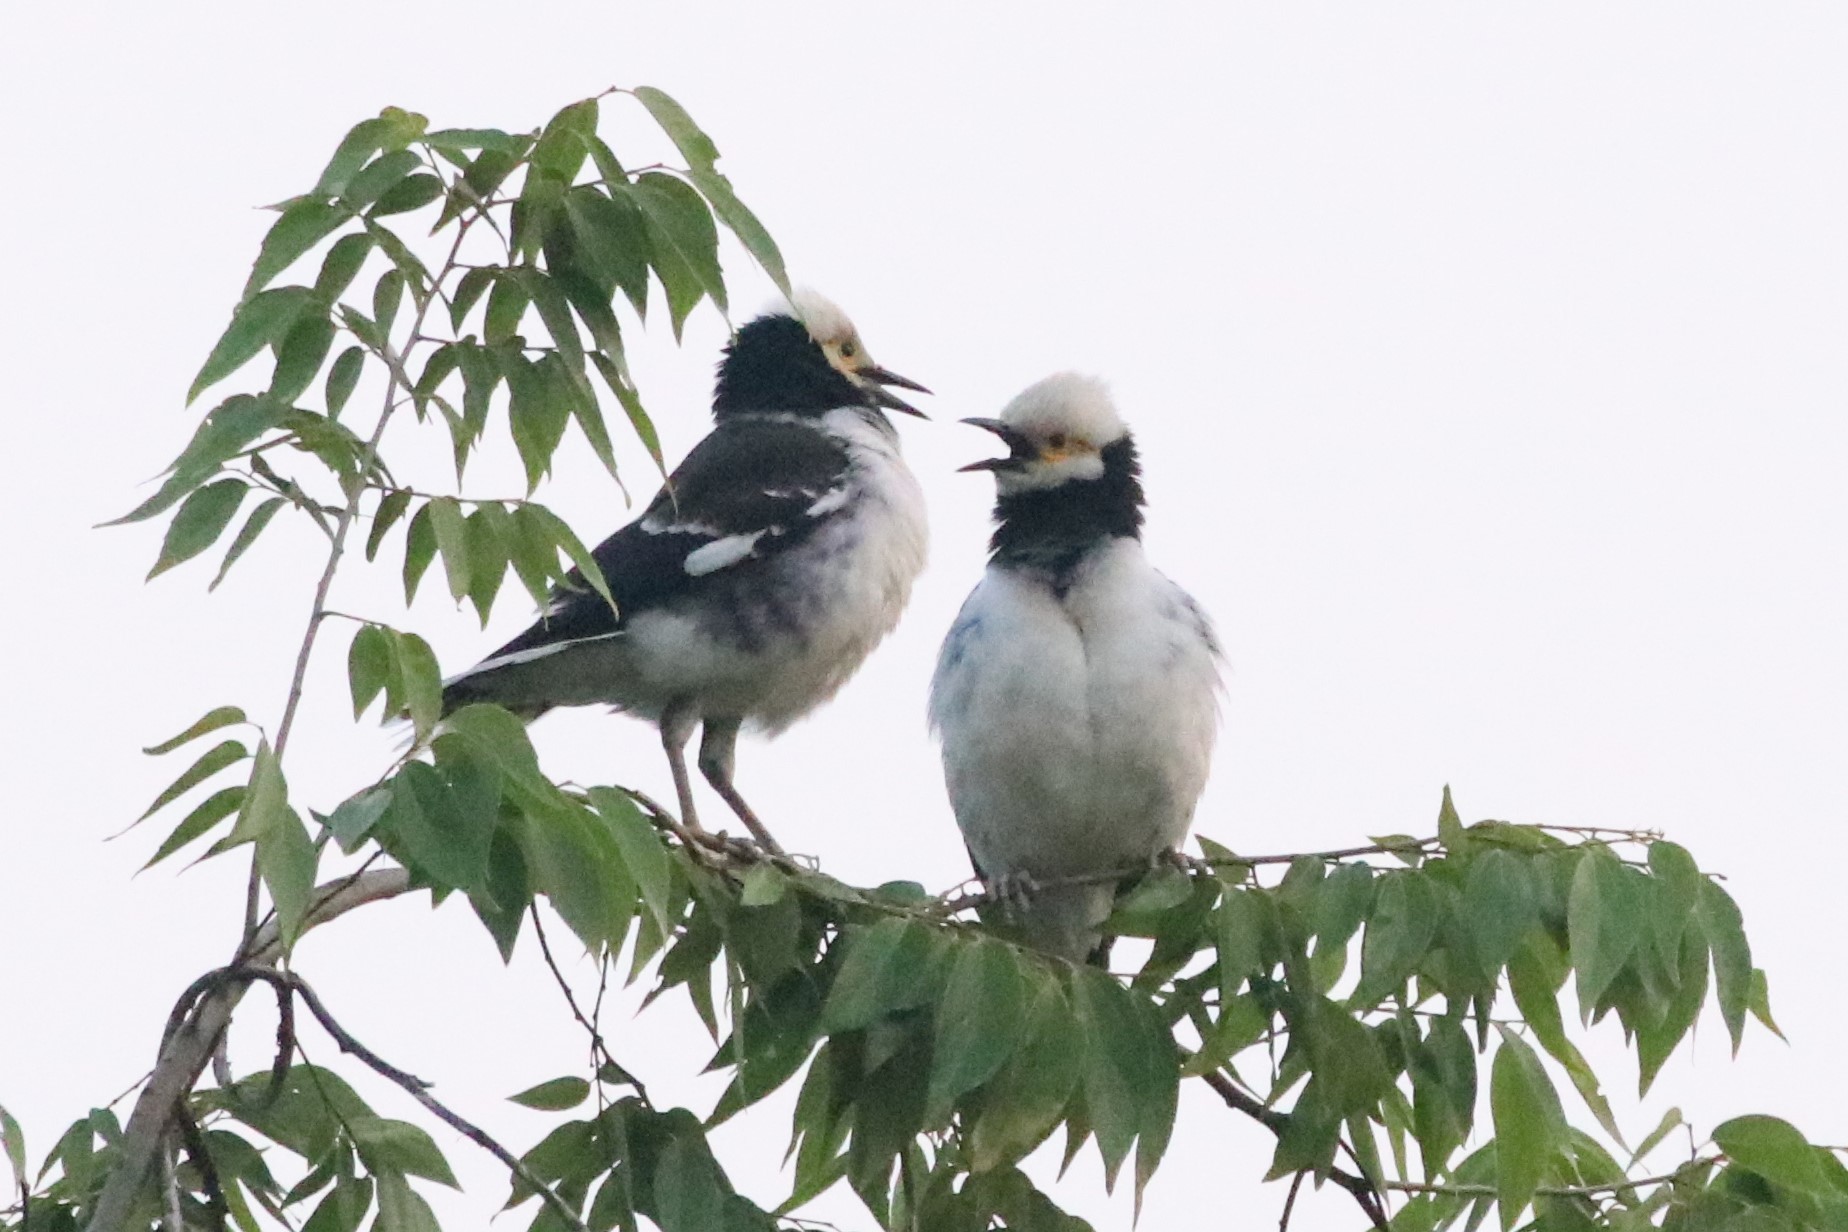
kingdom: Animalia
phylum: Chordata
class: Aves
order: Passeriformes
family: Sturnidae
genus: Gracupica
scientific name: Gracupica nigricollis
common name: Black-collared starling
